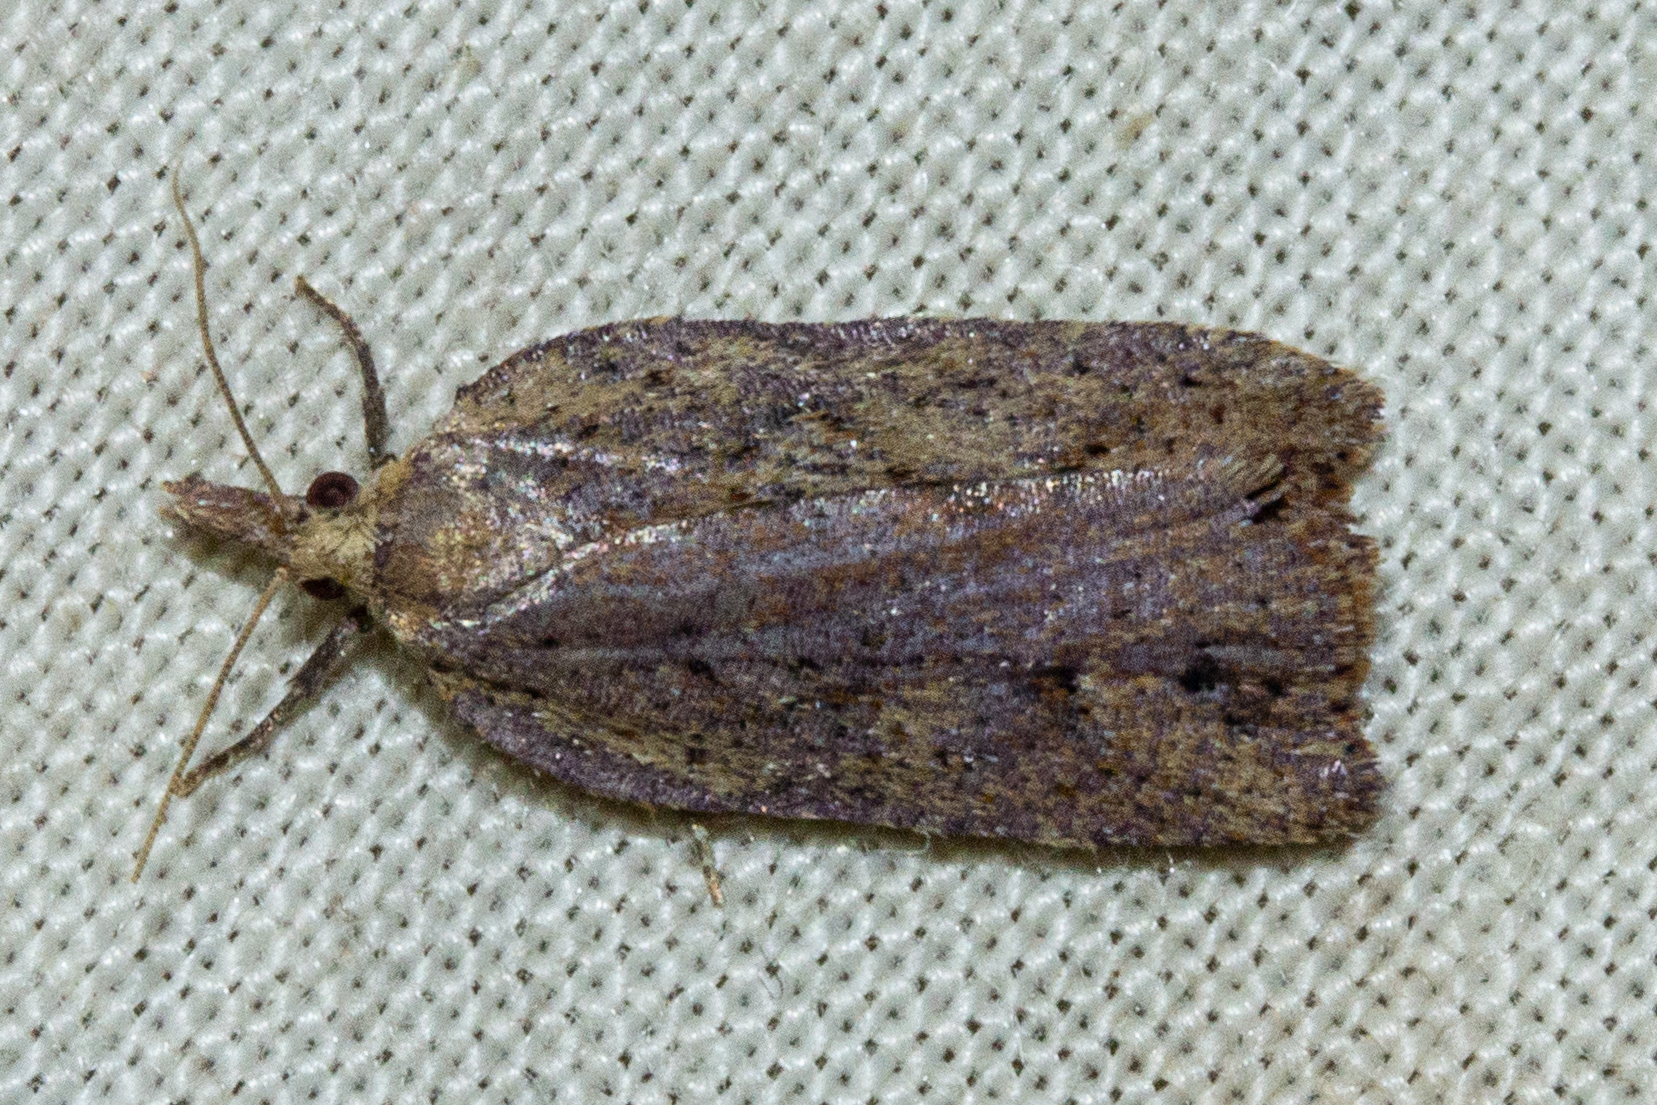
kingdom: Animalia
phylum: Arthropoda
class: Insecta
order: Lepidoptera
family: Tortricidae
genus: Planotortrix
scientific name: Planotortrix notophaea
